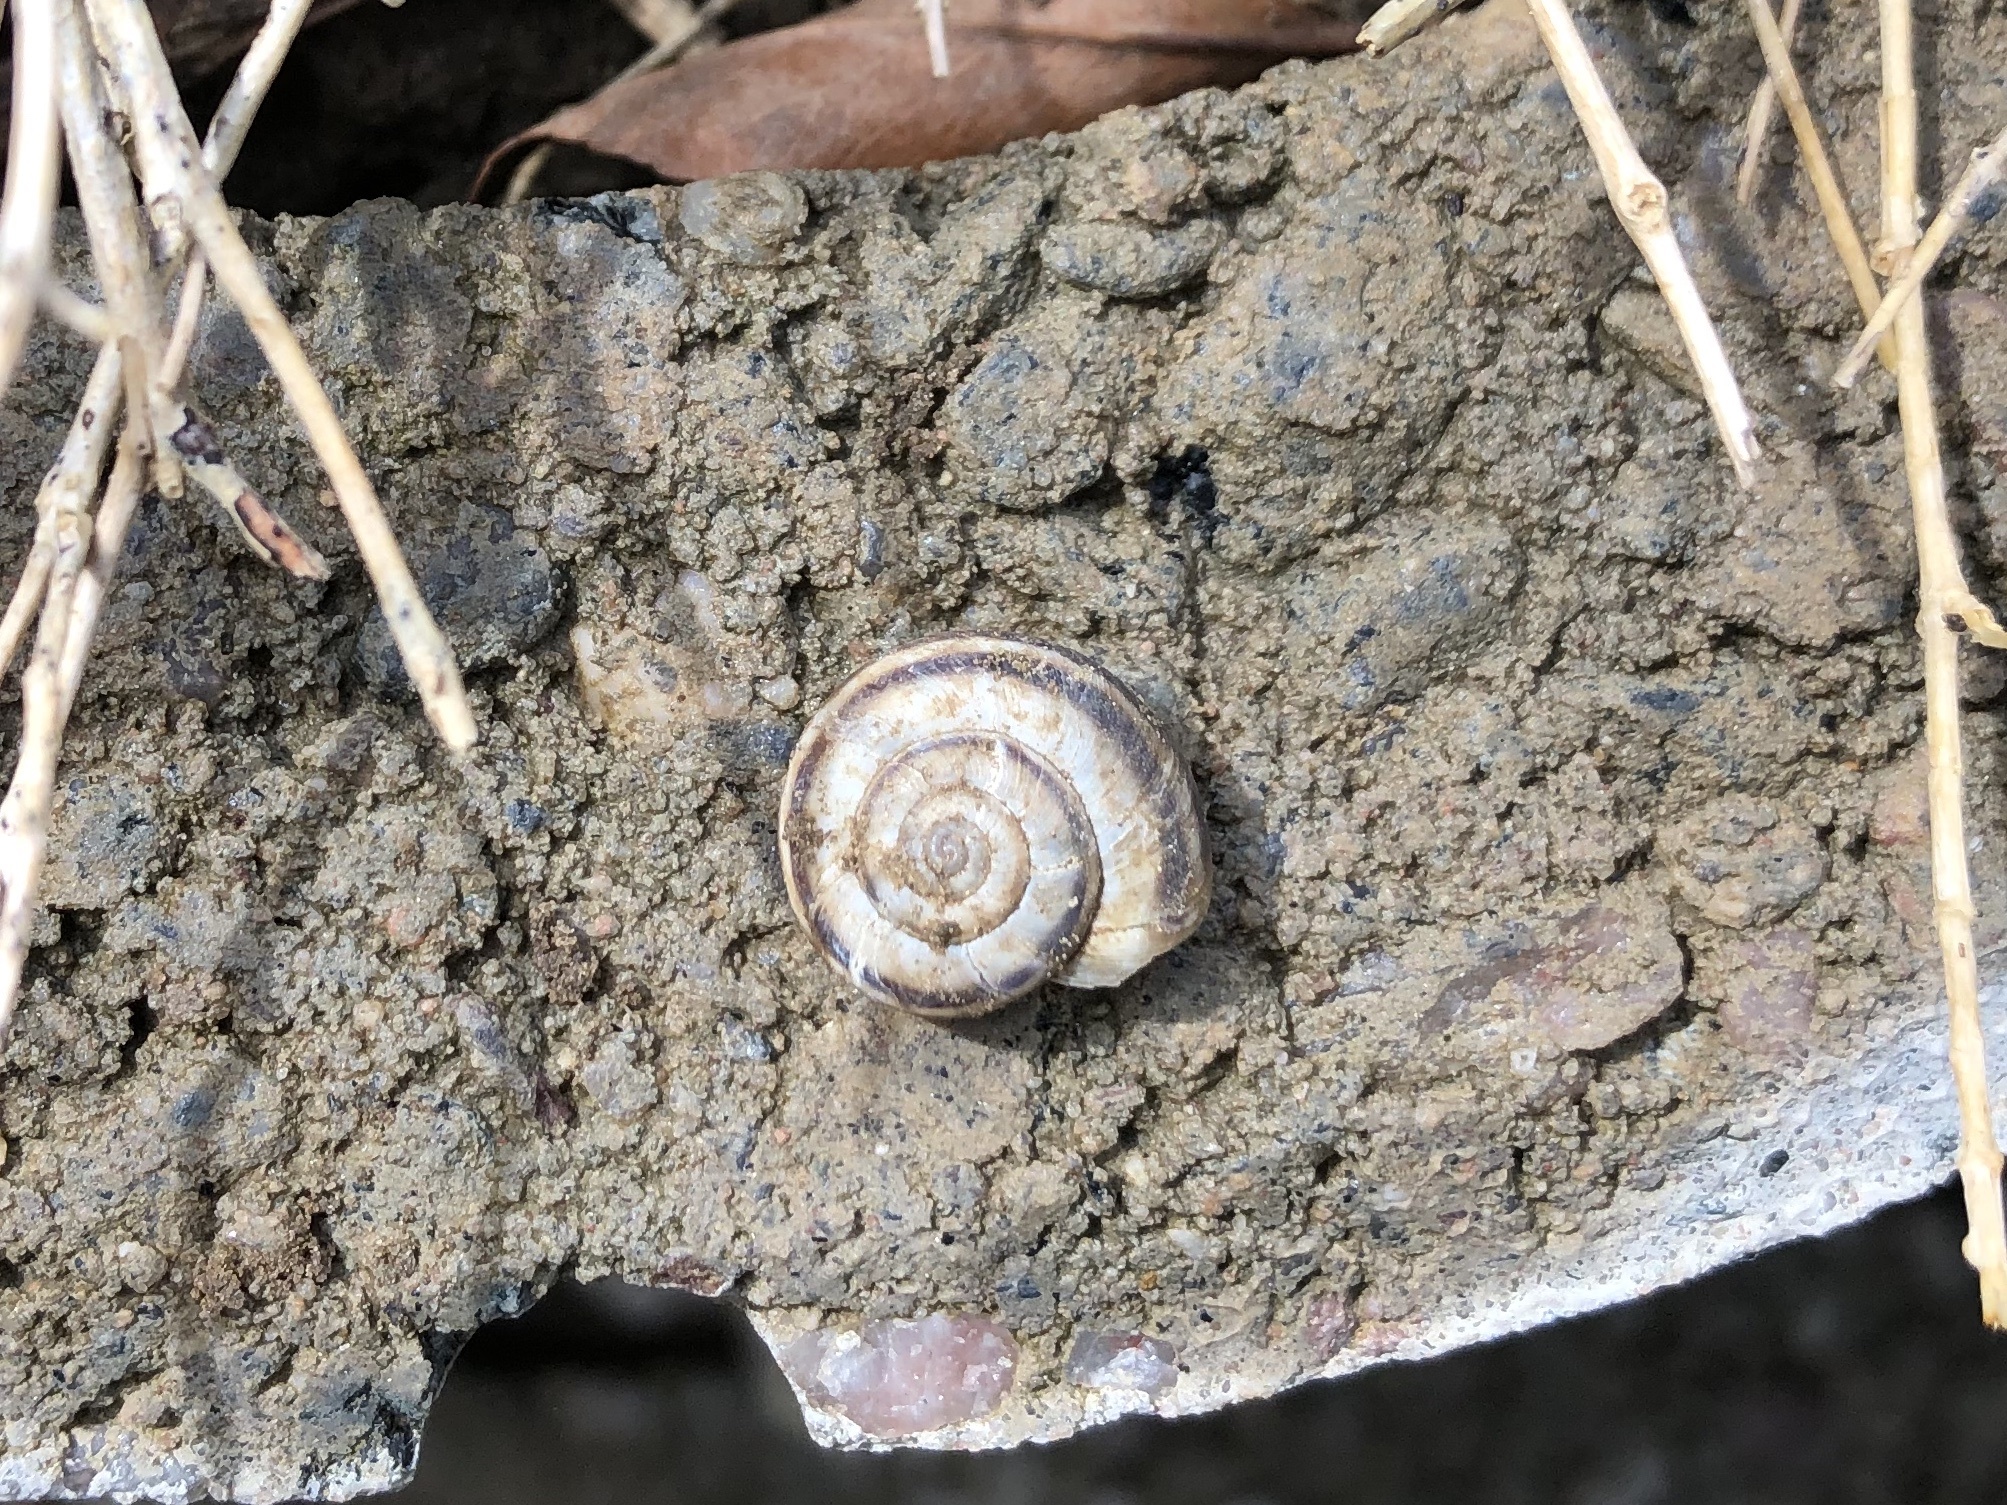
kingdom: Animalia
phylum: Mollusca
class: Gastropoda
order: Stylommatophora
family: Geomitridae
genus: Xerolenta
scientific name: Xerolenta obvia
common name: White heath snail
